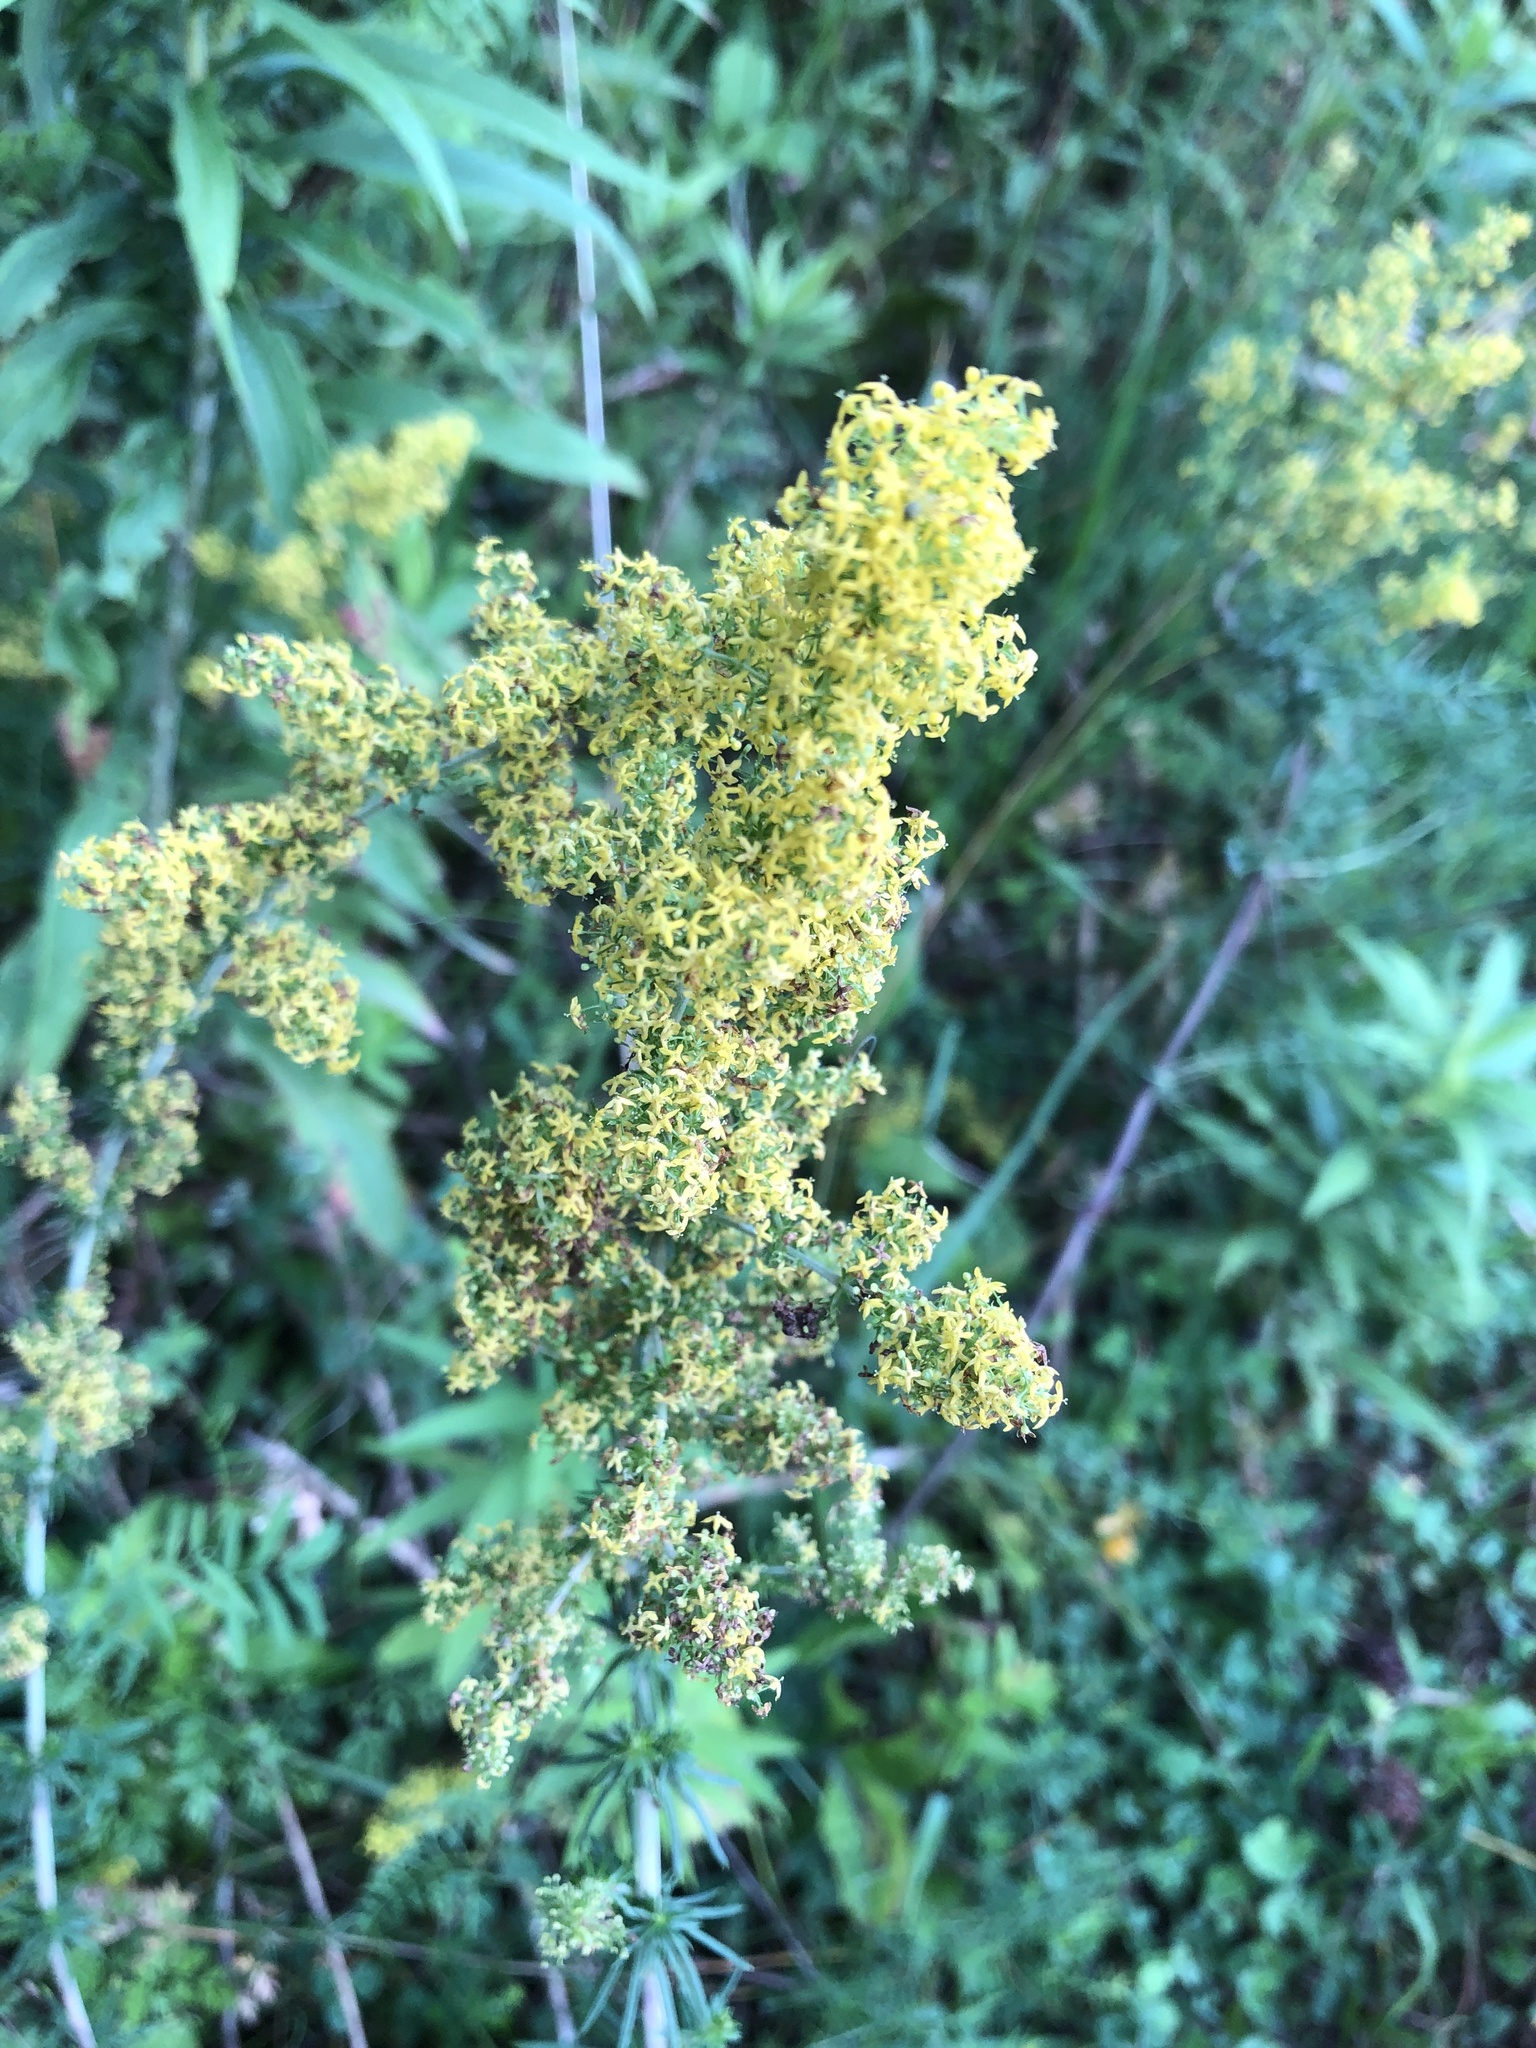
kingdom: Plantae
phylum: Tracheophyta
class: Magnoliopsida
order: Gentianales
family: Rubiaceae
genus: Galium
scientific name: Galium verum
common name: Lady's bedstraw
